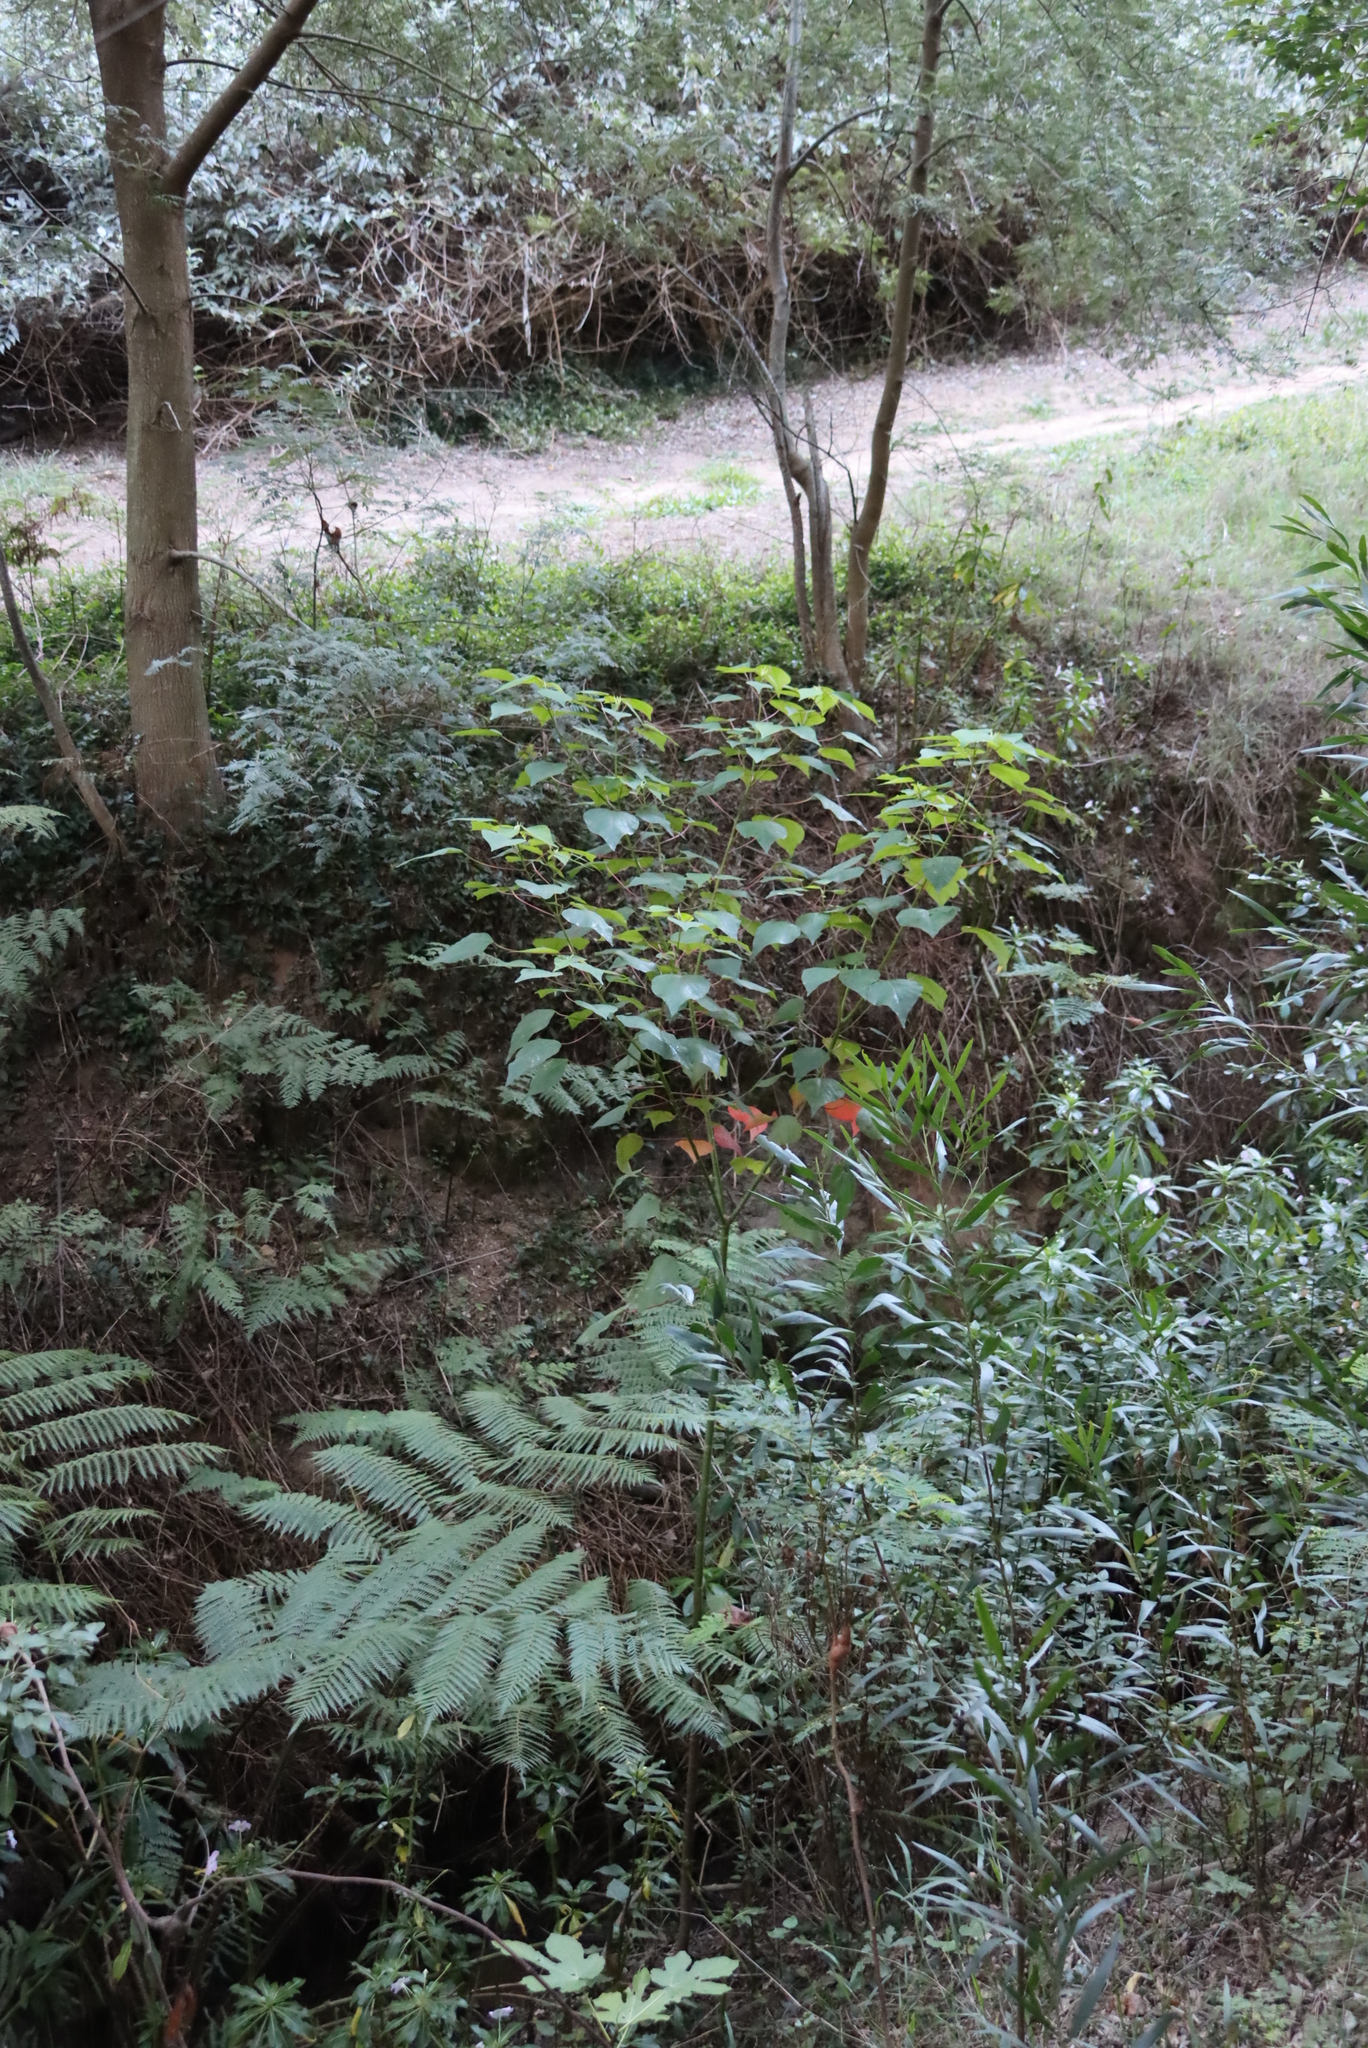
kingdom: Plantae
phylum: Tracheophyta
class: Magnoliopsida
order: Malpighiales
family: Euphorbiaceae
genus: Homalanthus
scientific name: Homalanthus populifolius
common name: Queensland poplar
